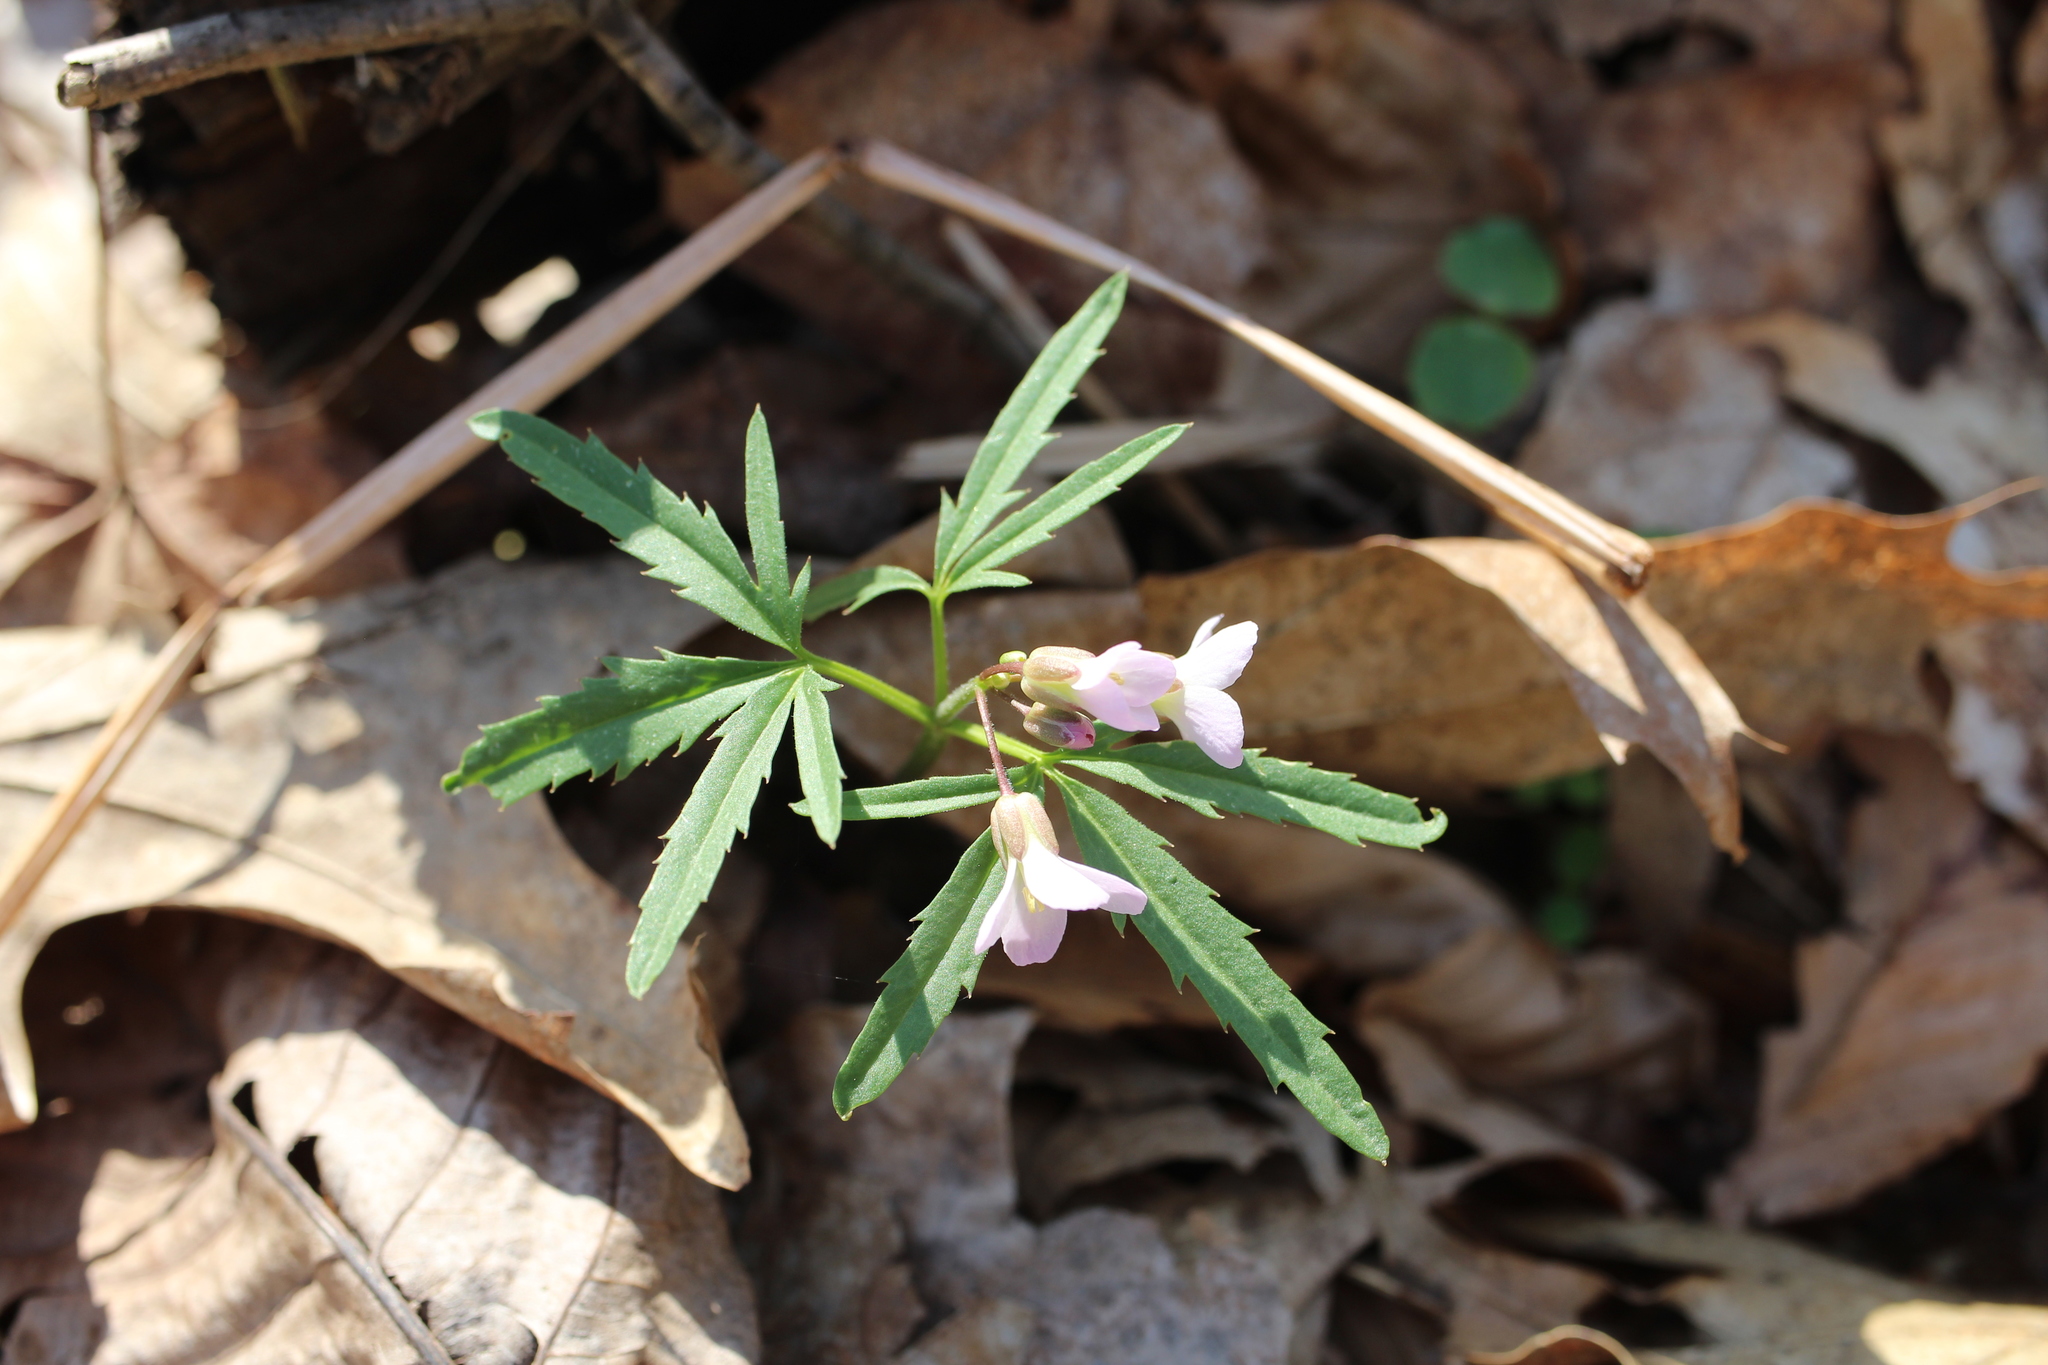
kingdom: Plantae
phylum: Tracheophyta
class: Magnoliopsida
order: Brassicales
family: Brassicaceae
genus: Cardamine
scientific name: Cardamine concatenata
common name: Cut-leaf toothcup
